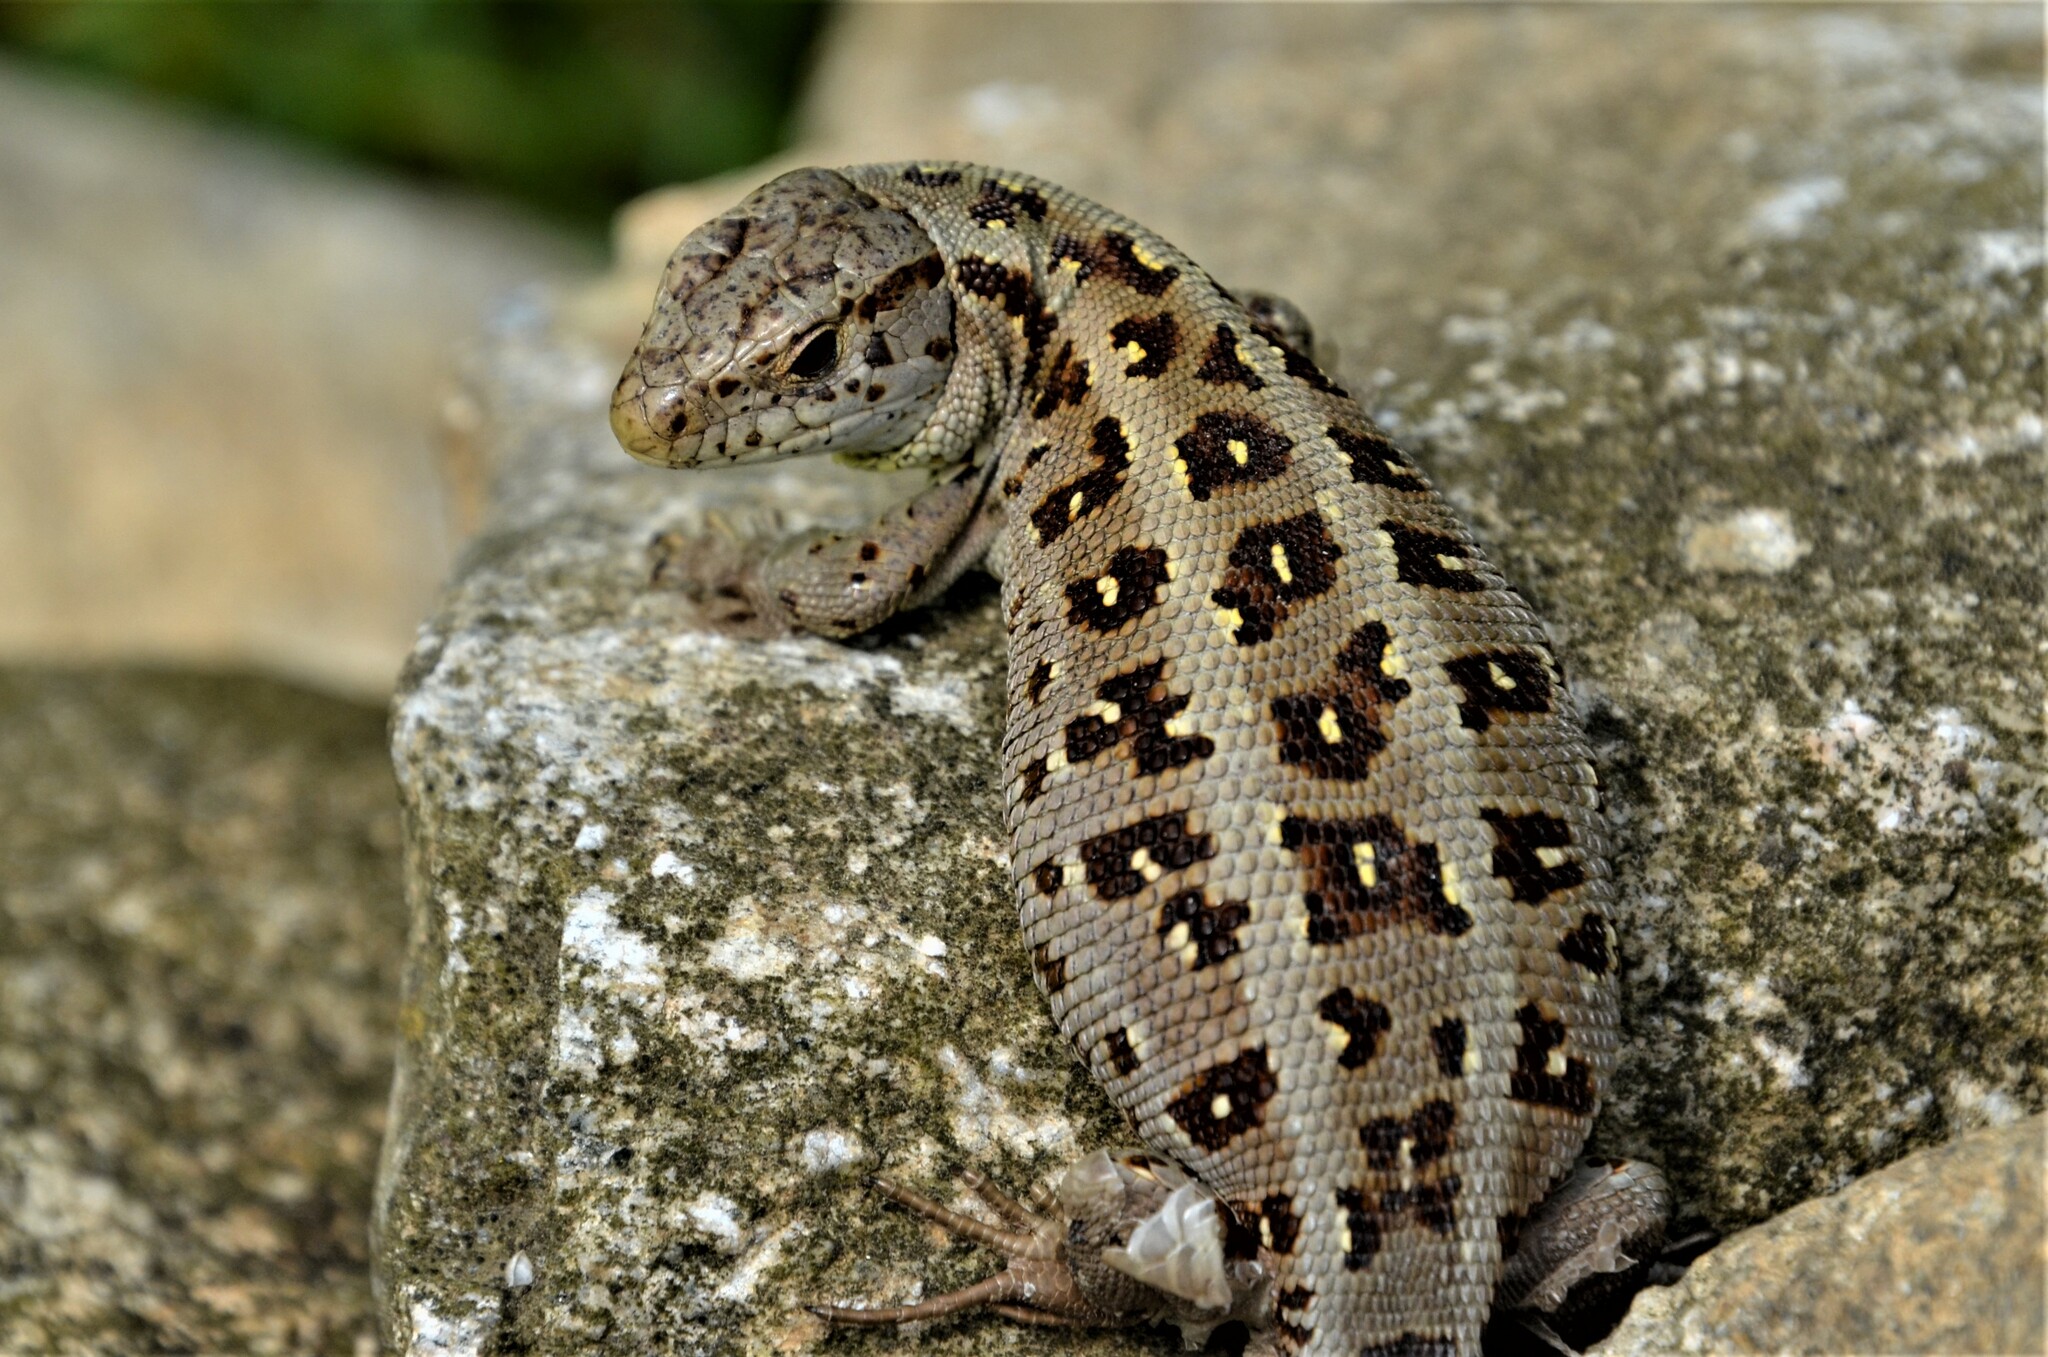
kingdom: Animalia
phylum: Chordata
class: Squamata
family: Lacertidae
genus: Lacerta
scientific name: Lacerta agilis
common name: Sand lizard
